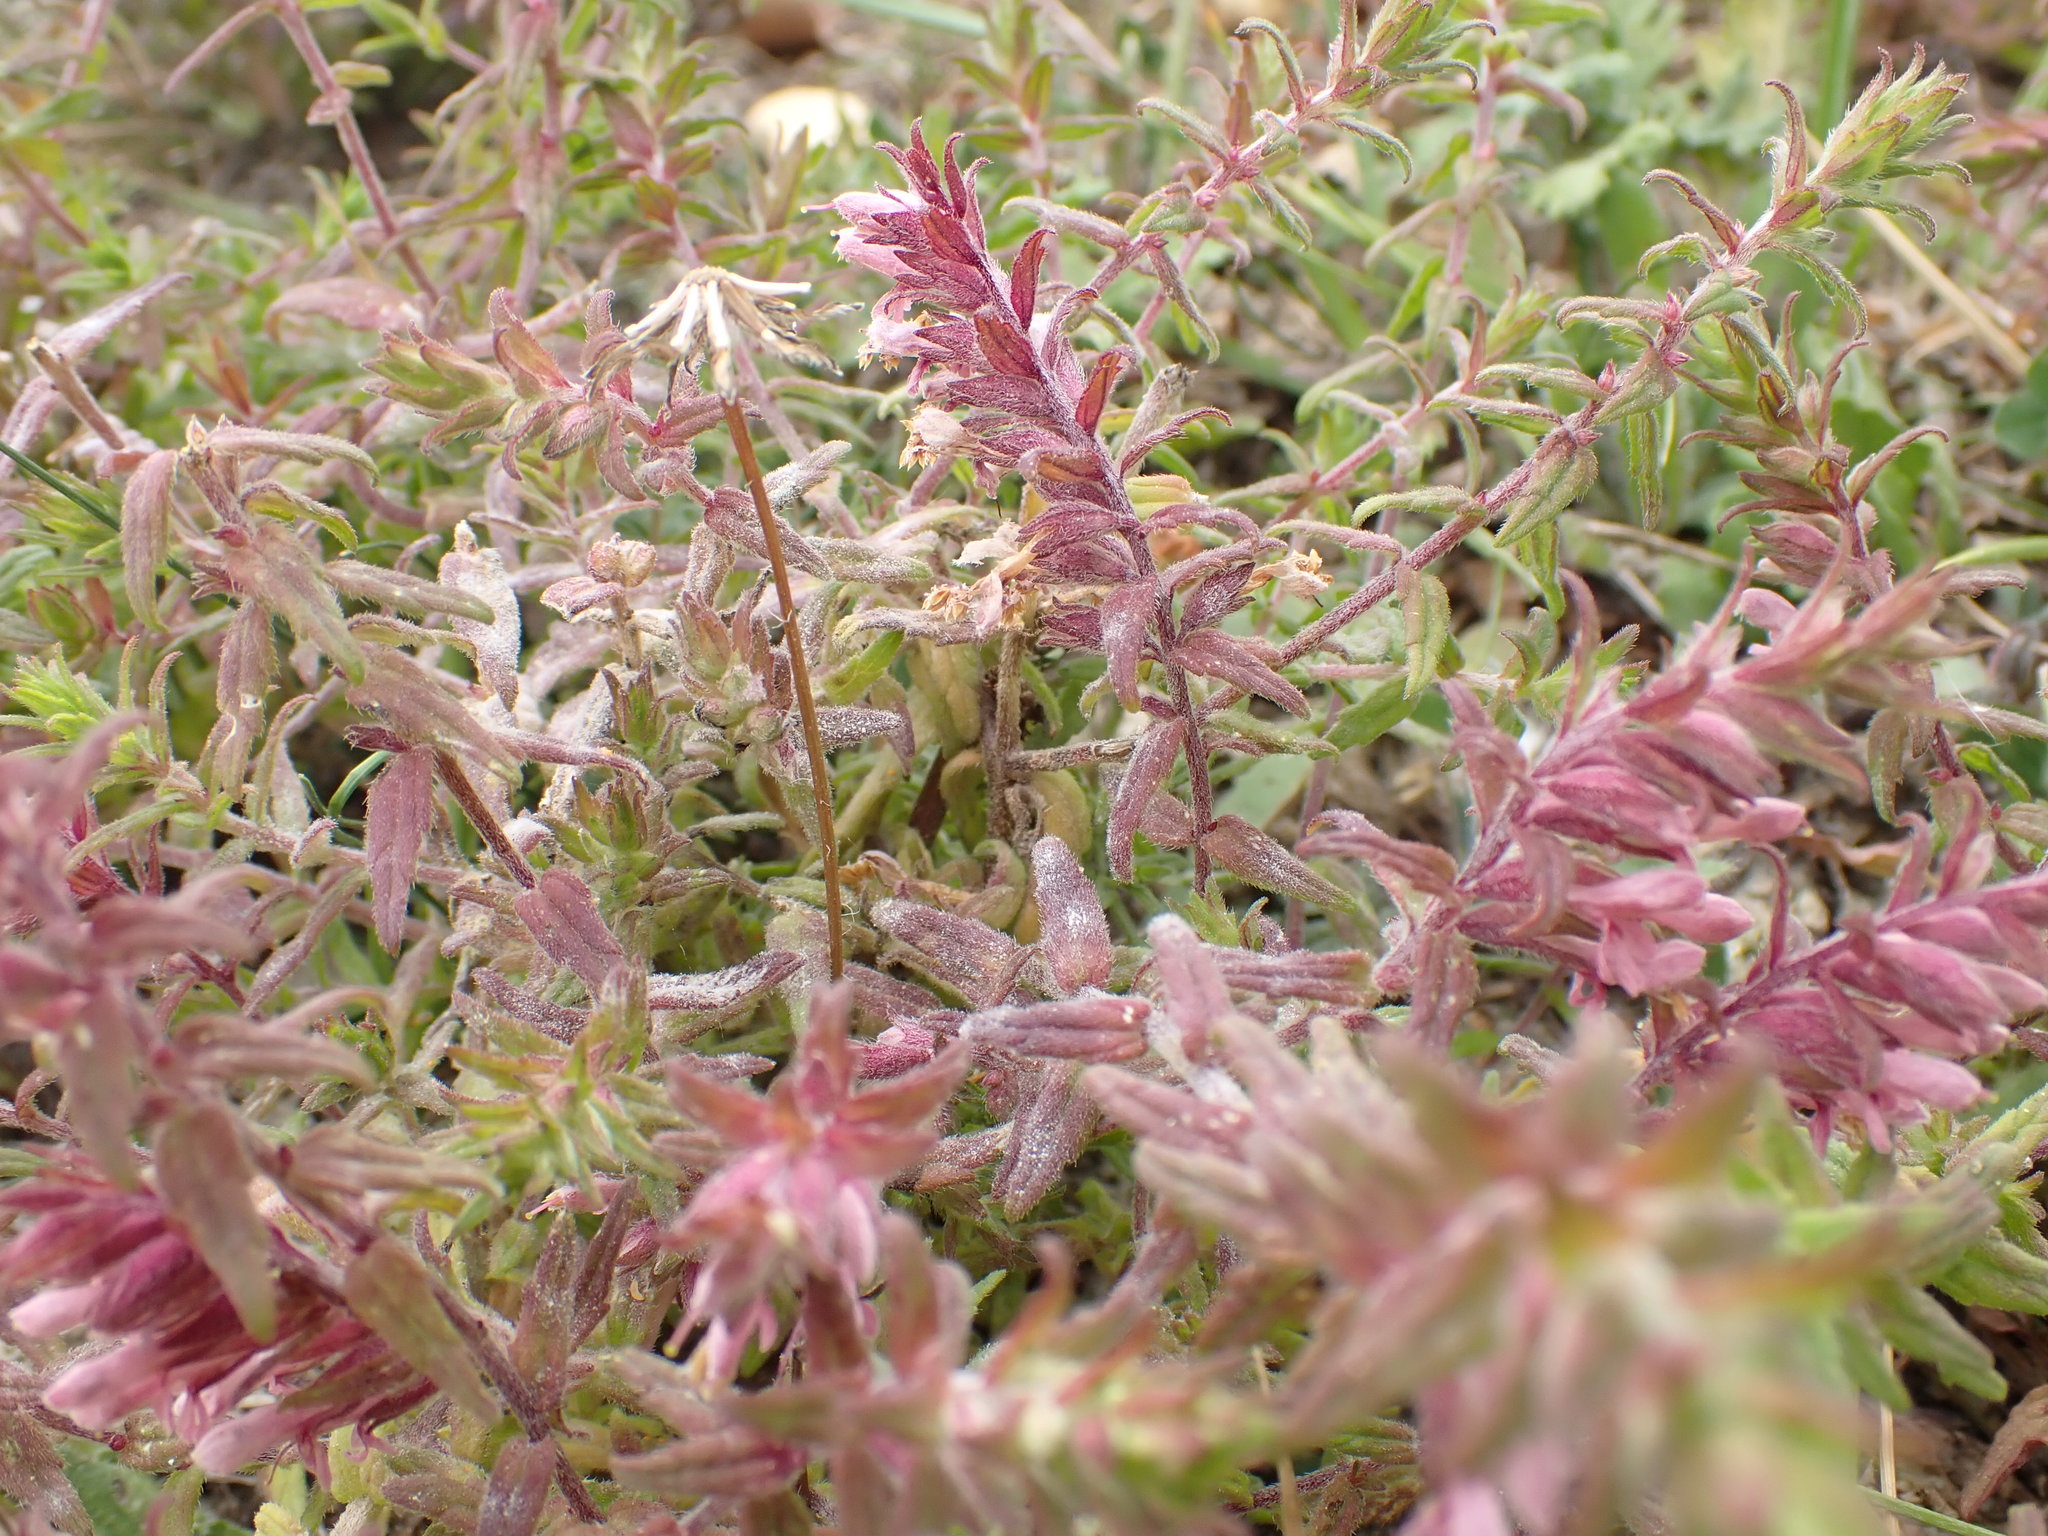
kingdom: Plantae
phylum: Tracheophyta
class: Magnoliopsida
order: Lamiales
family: Orobanchaceae
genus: Odontites
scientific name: Odontites vulgaris
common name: Broomrape
